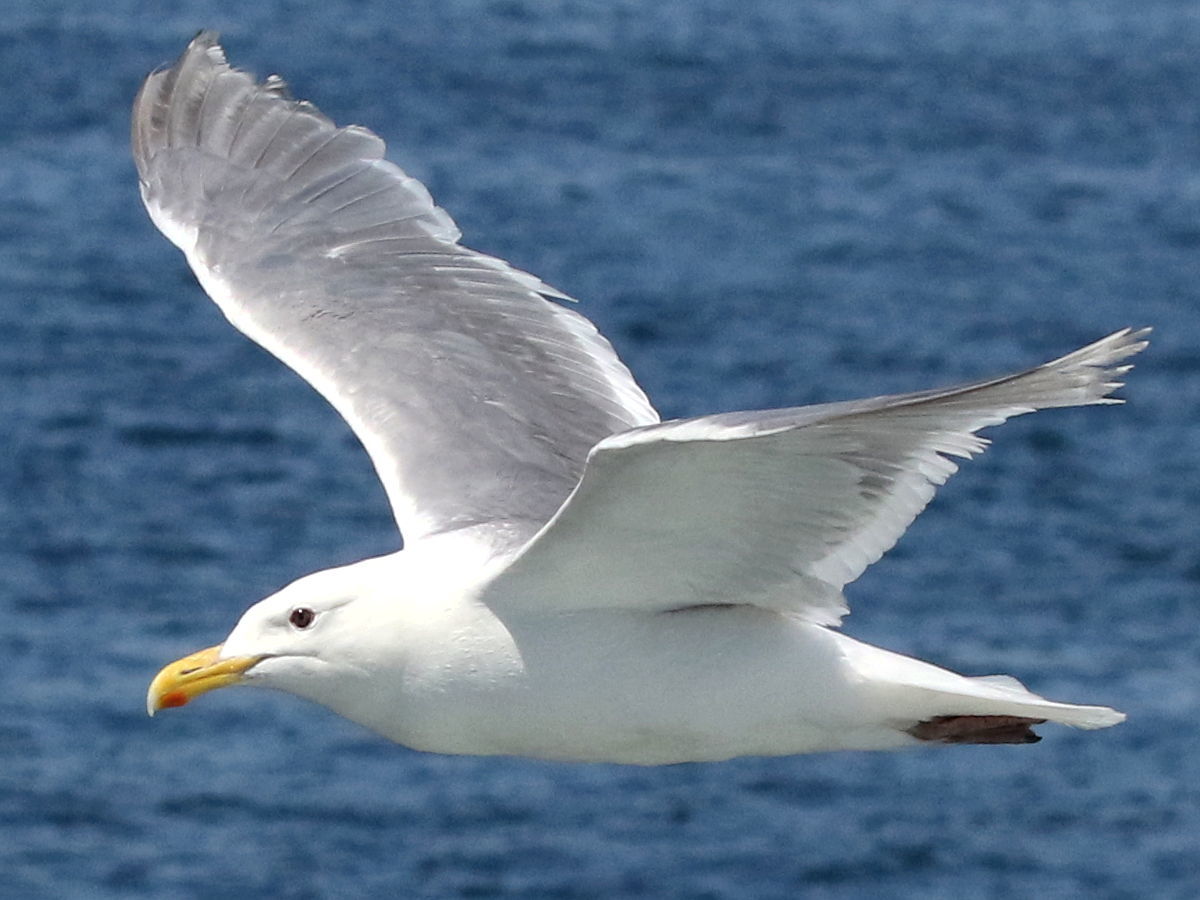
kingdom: Animalia
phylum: Chordata
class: Aves
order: Charadriiformes
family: Laridae
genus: Larus
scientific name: Larus glaucescens
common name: Glaucous-winged gull
